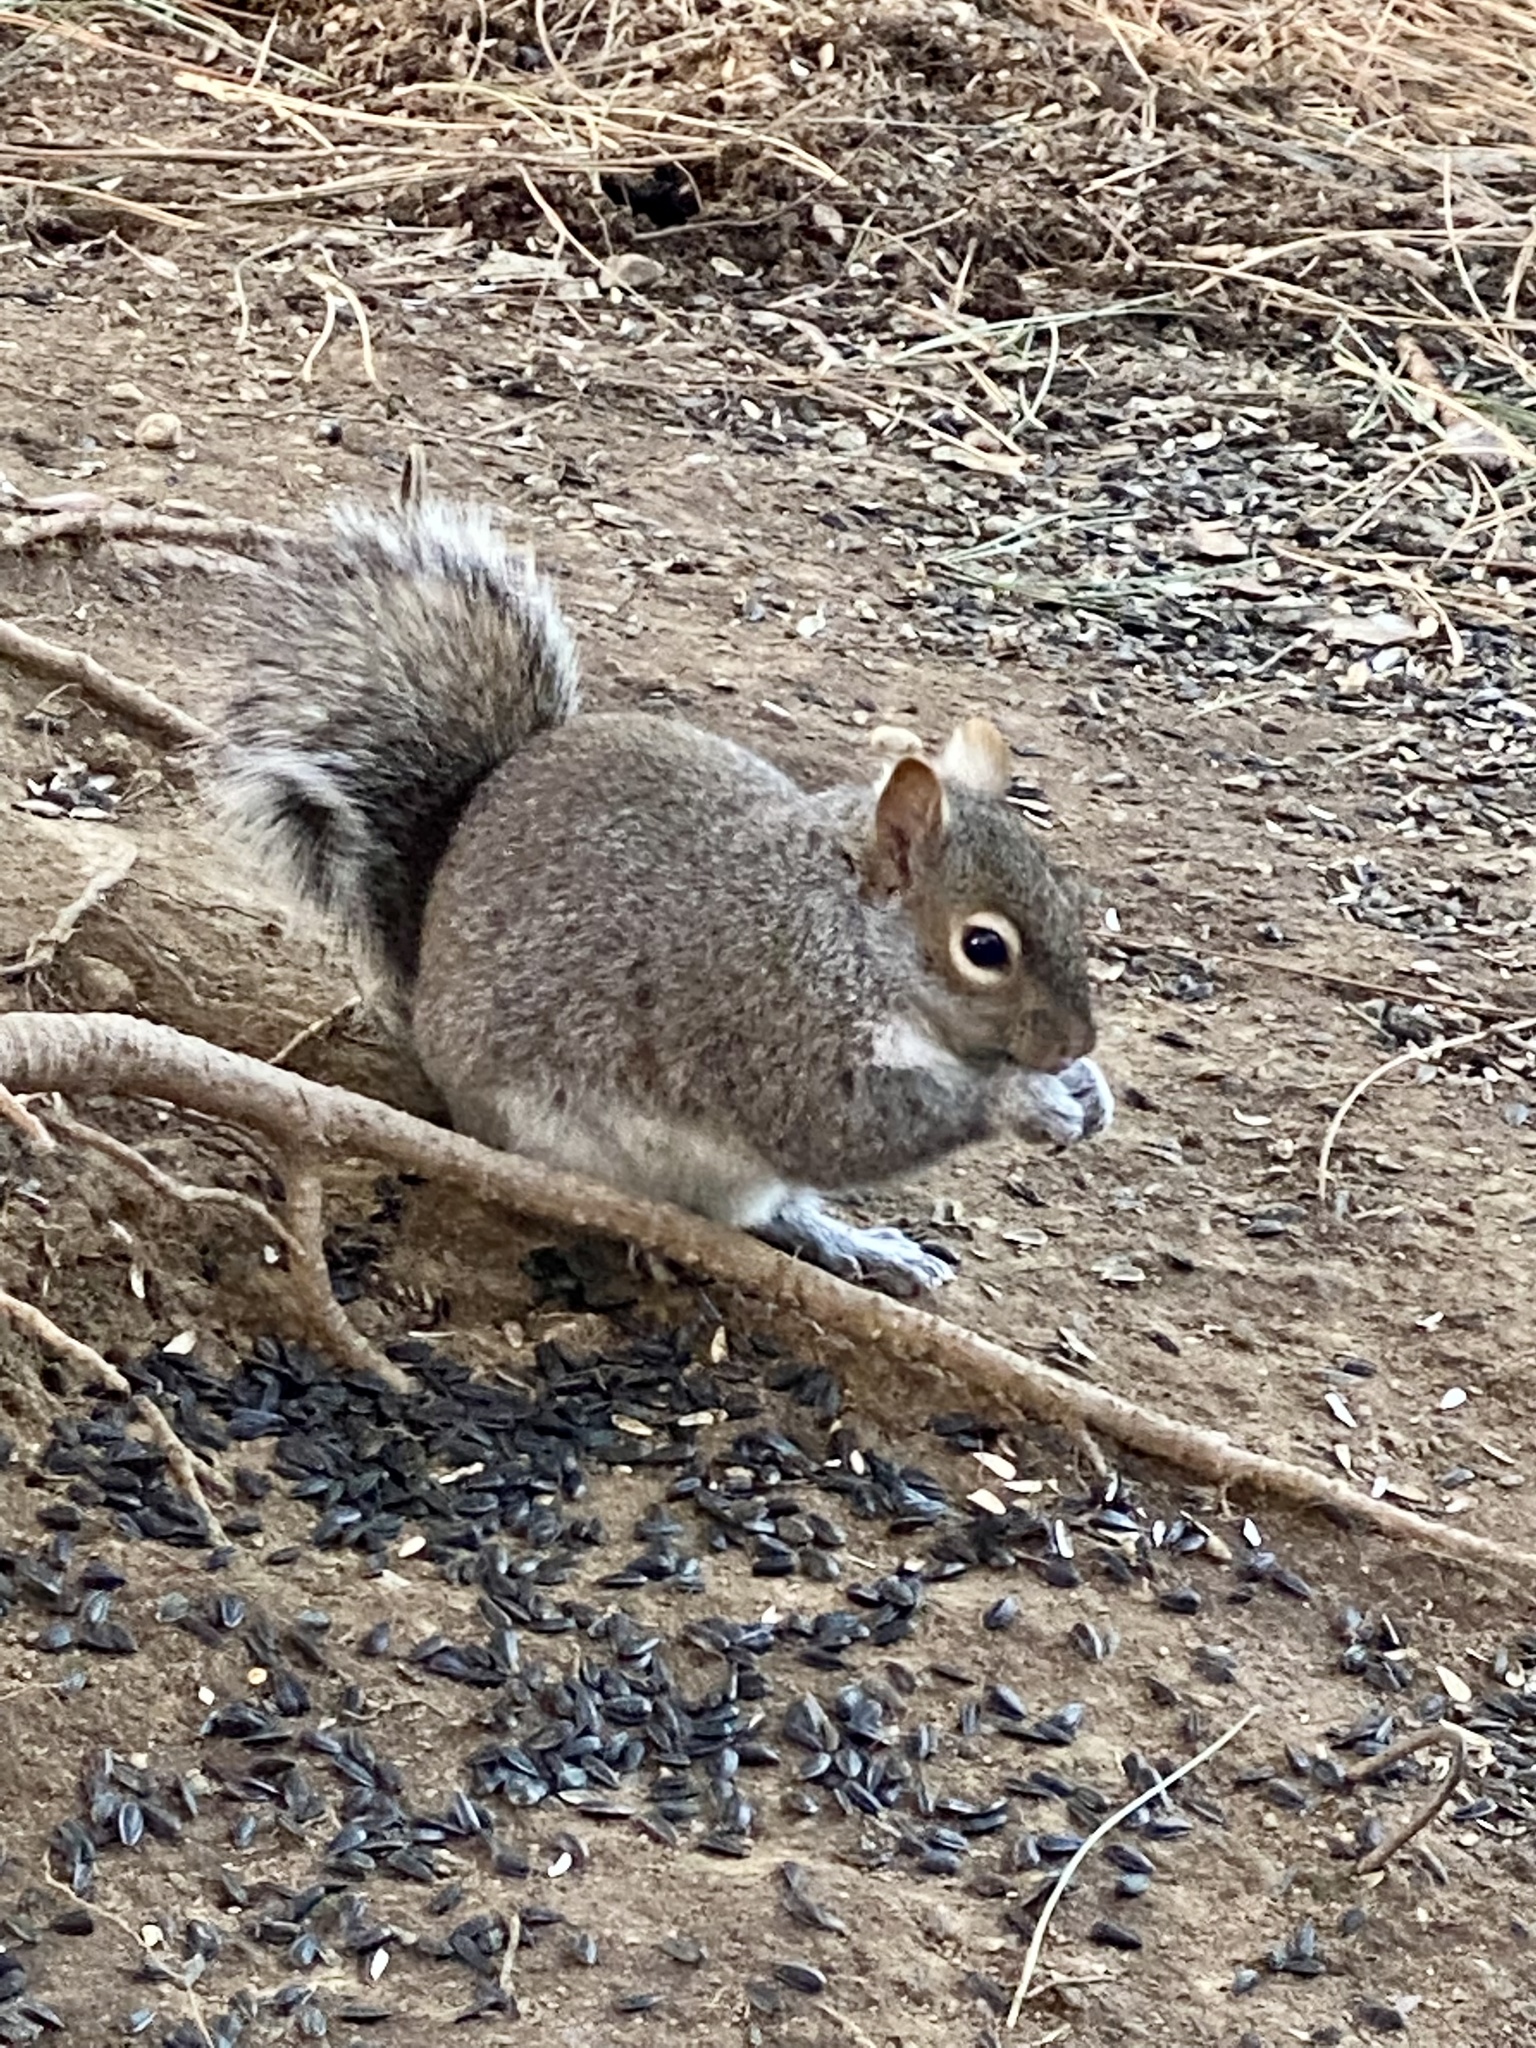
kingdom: Animalia
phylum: Chordata
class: Mammalia
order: Rodentia
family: Sciuridae
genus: Sciurus
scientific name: Sciurus carolinensis
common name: Eastern gray squirrel
